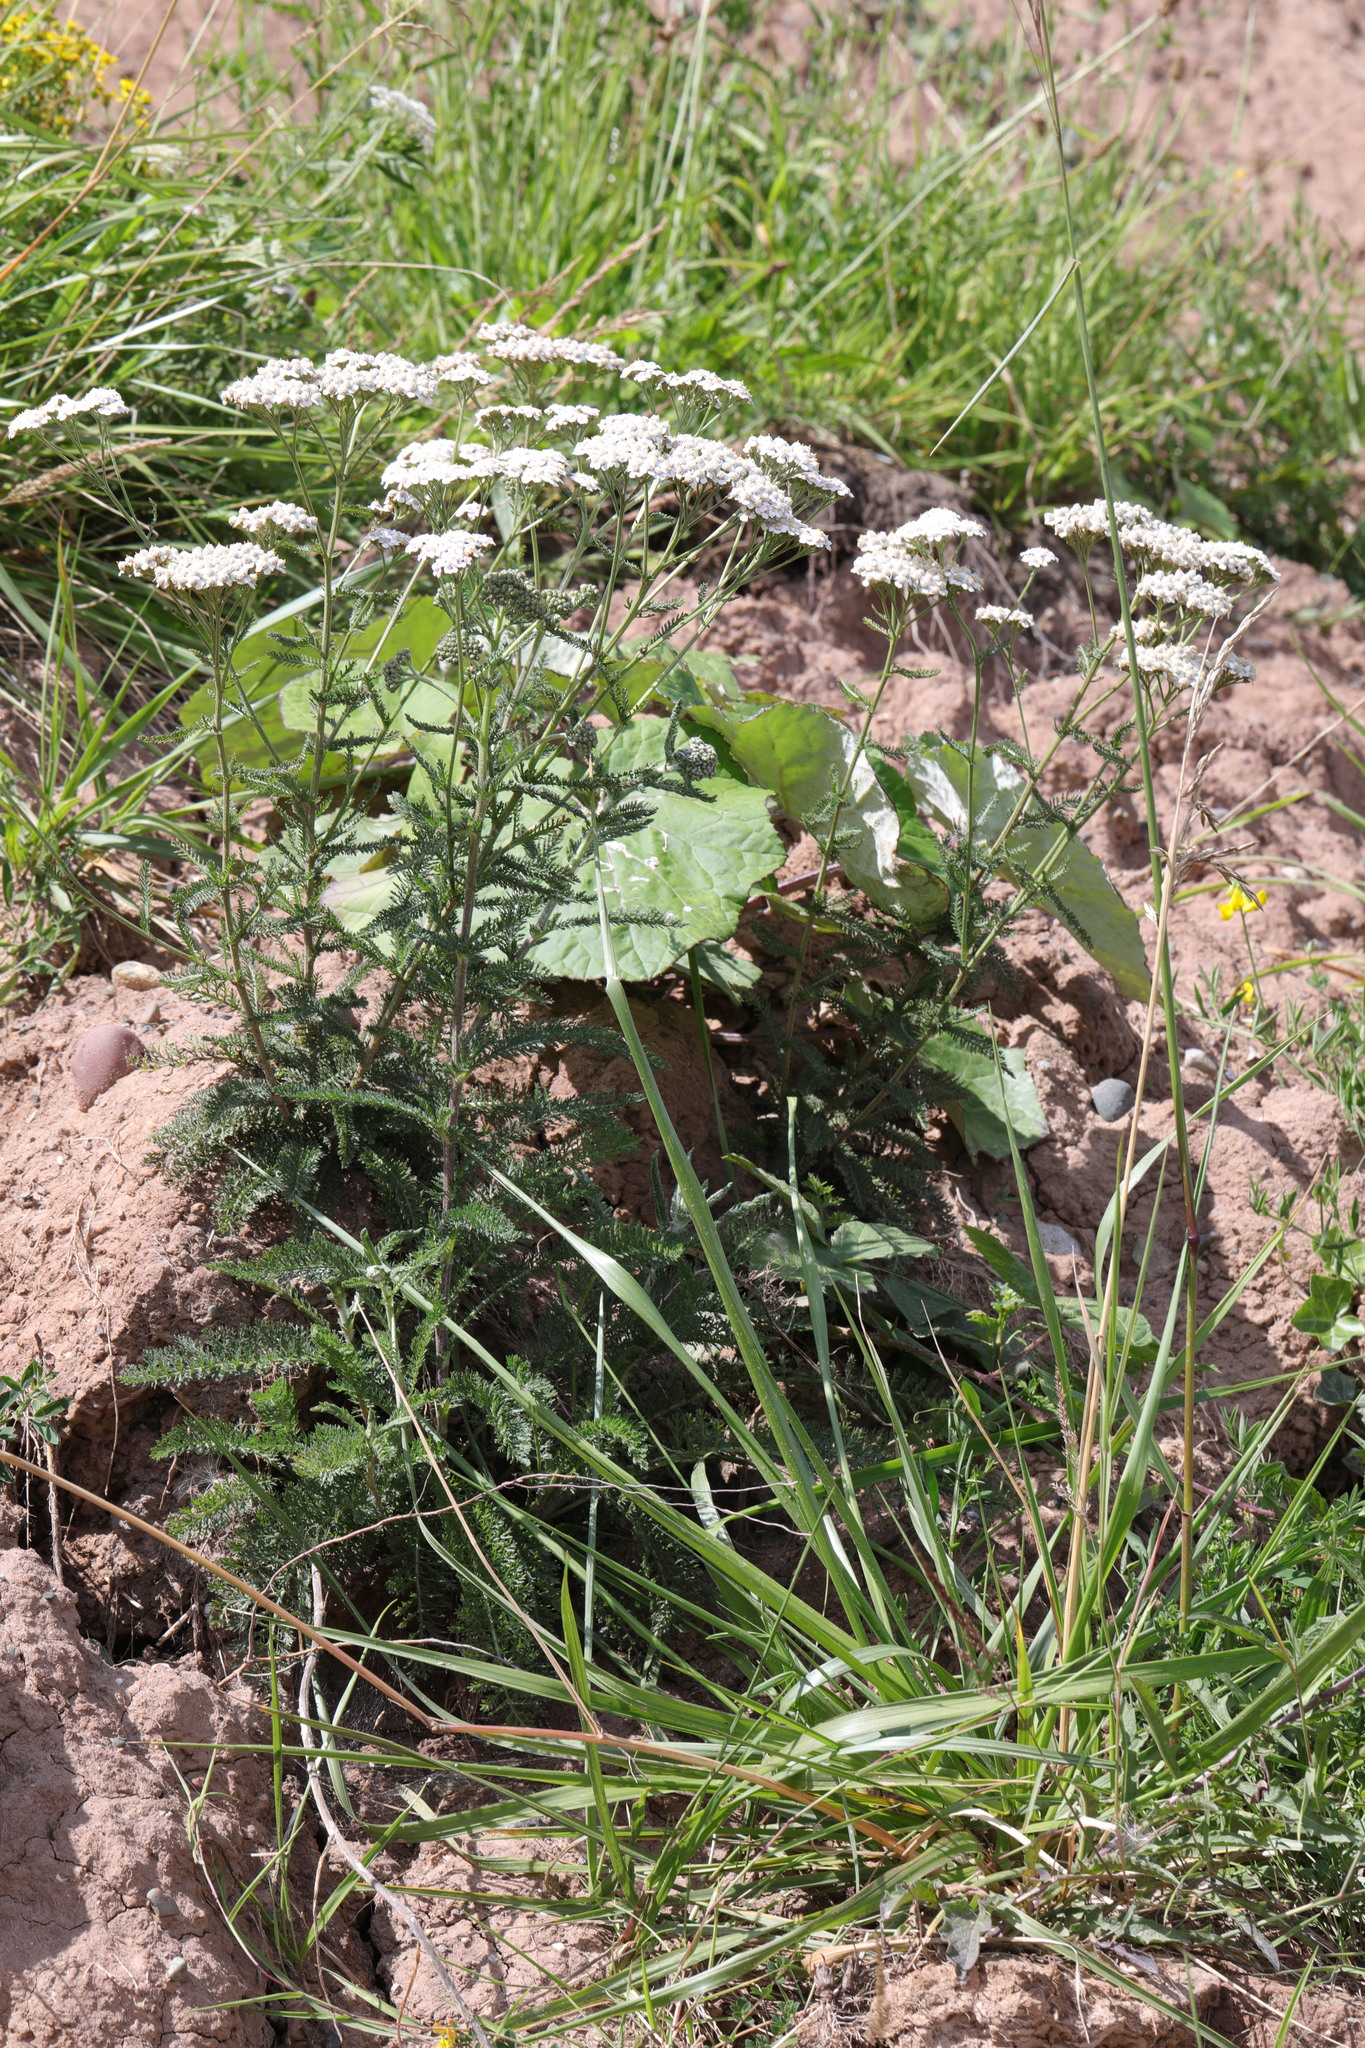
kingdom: Plantae
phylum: Tracheophyta
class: Magnoliopsida
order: Asterales
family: Asteraceae
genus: Achillea
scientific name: Achillea millefolium
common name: Yarrow
